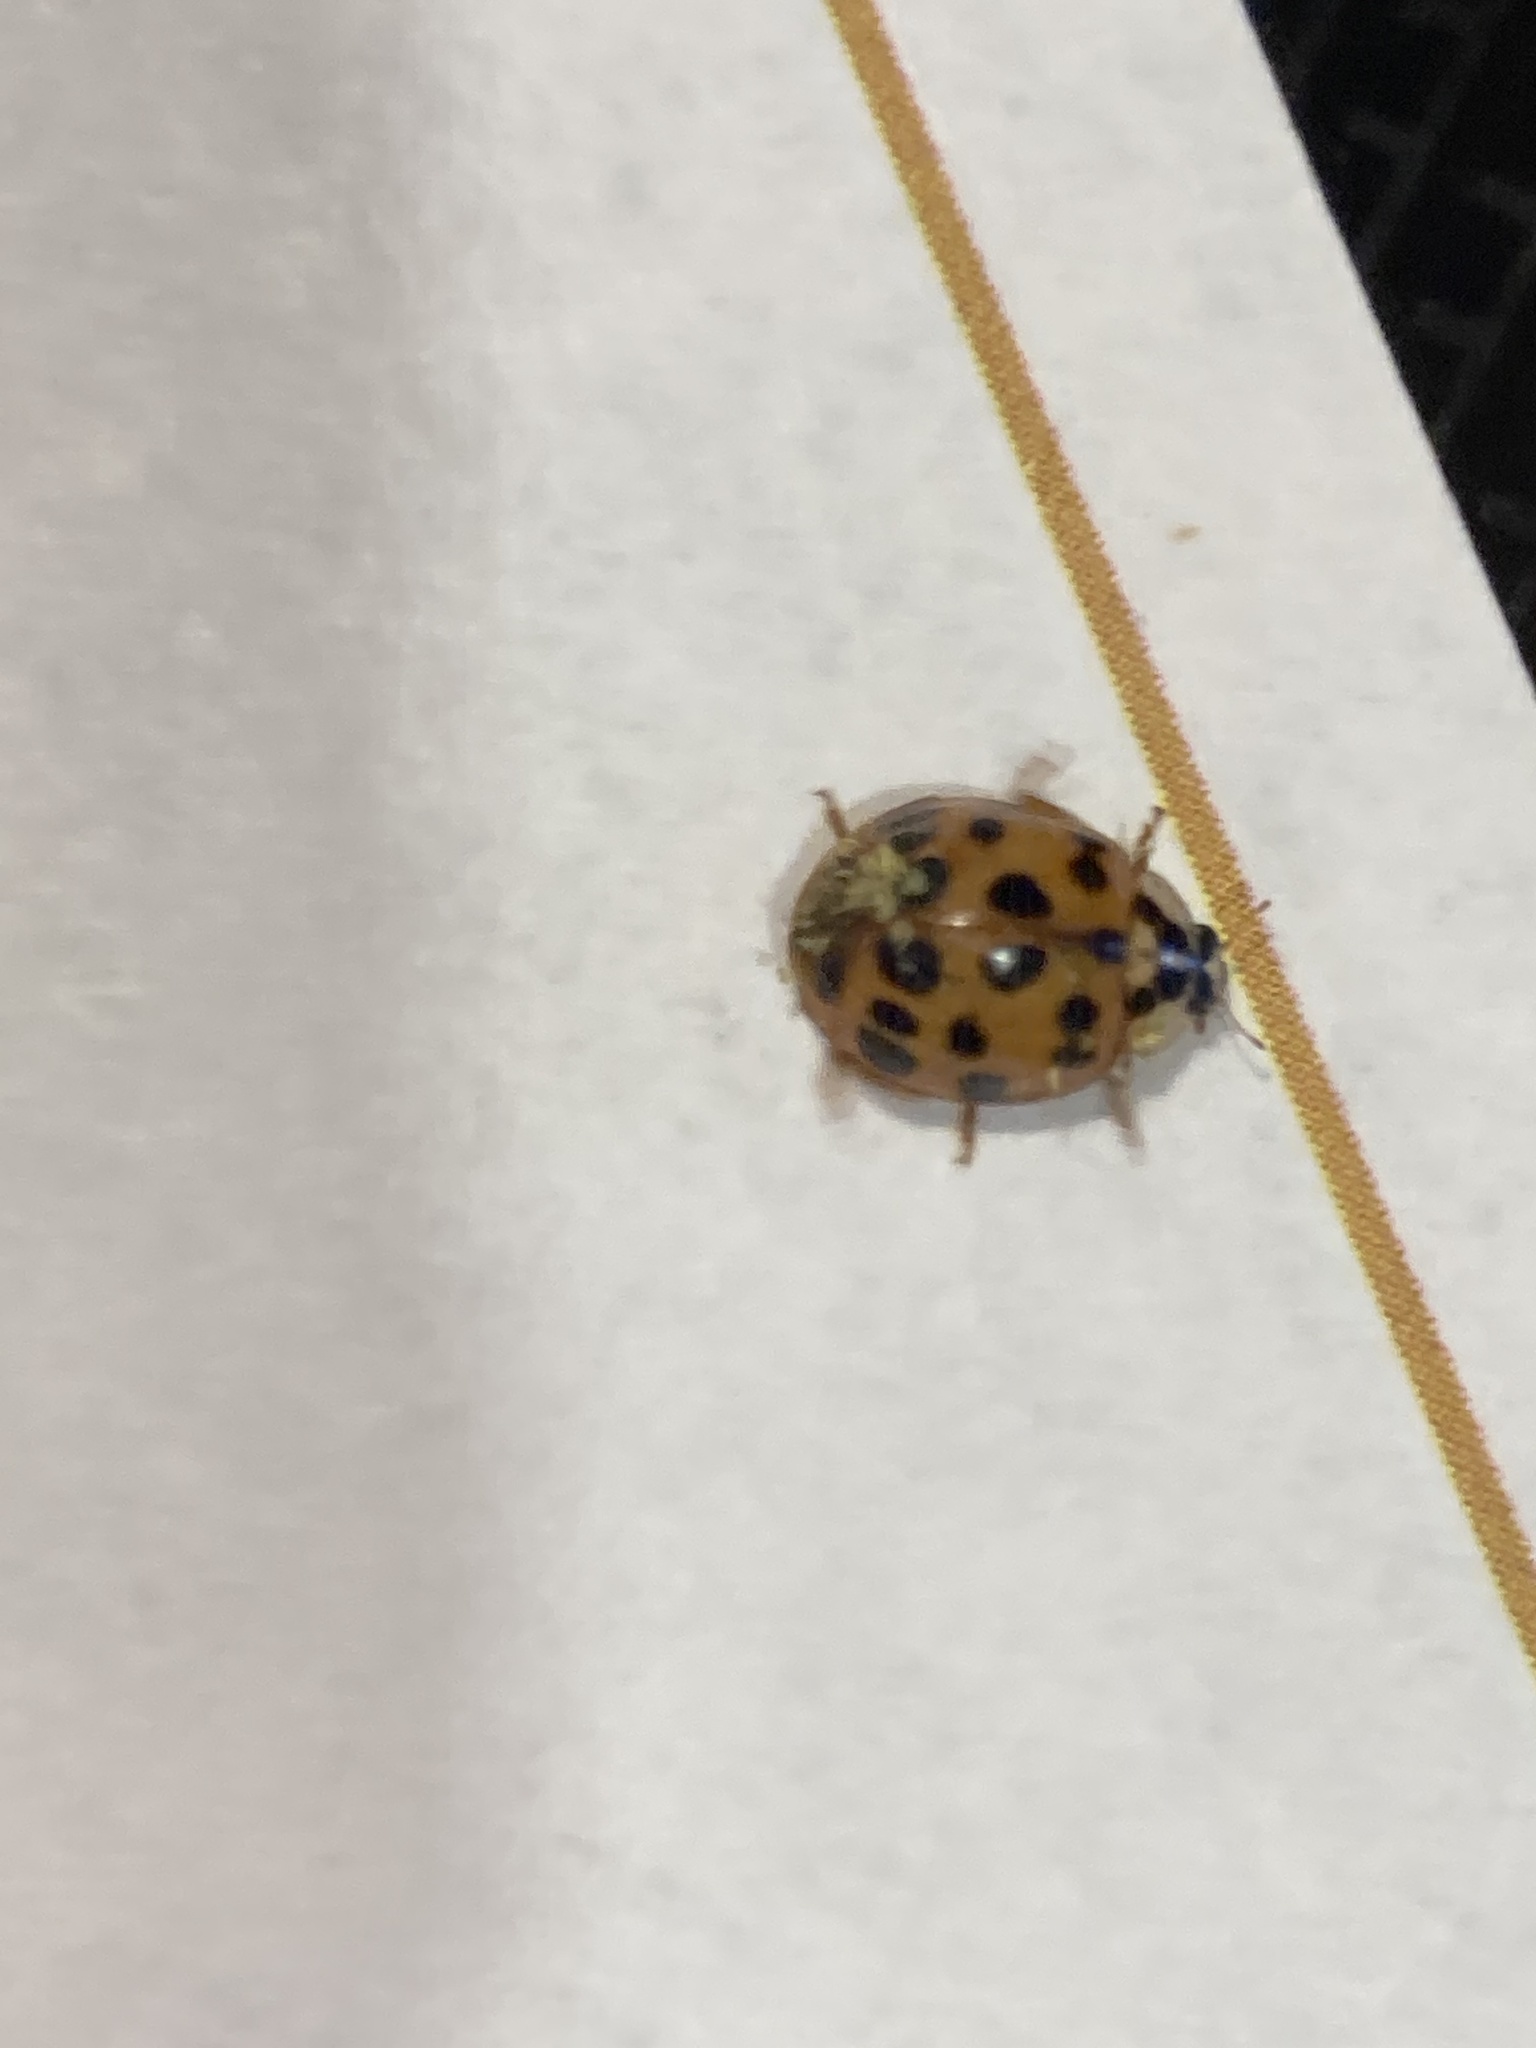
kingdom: Animalia
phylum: Arthropoda
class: Insecta
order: Coleoptera
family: Coccinellidae
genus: Harmonia
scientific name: Harmonia axyridis
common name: Harlequin ladybird
